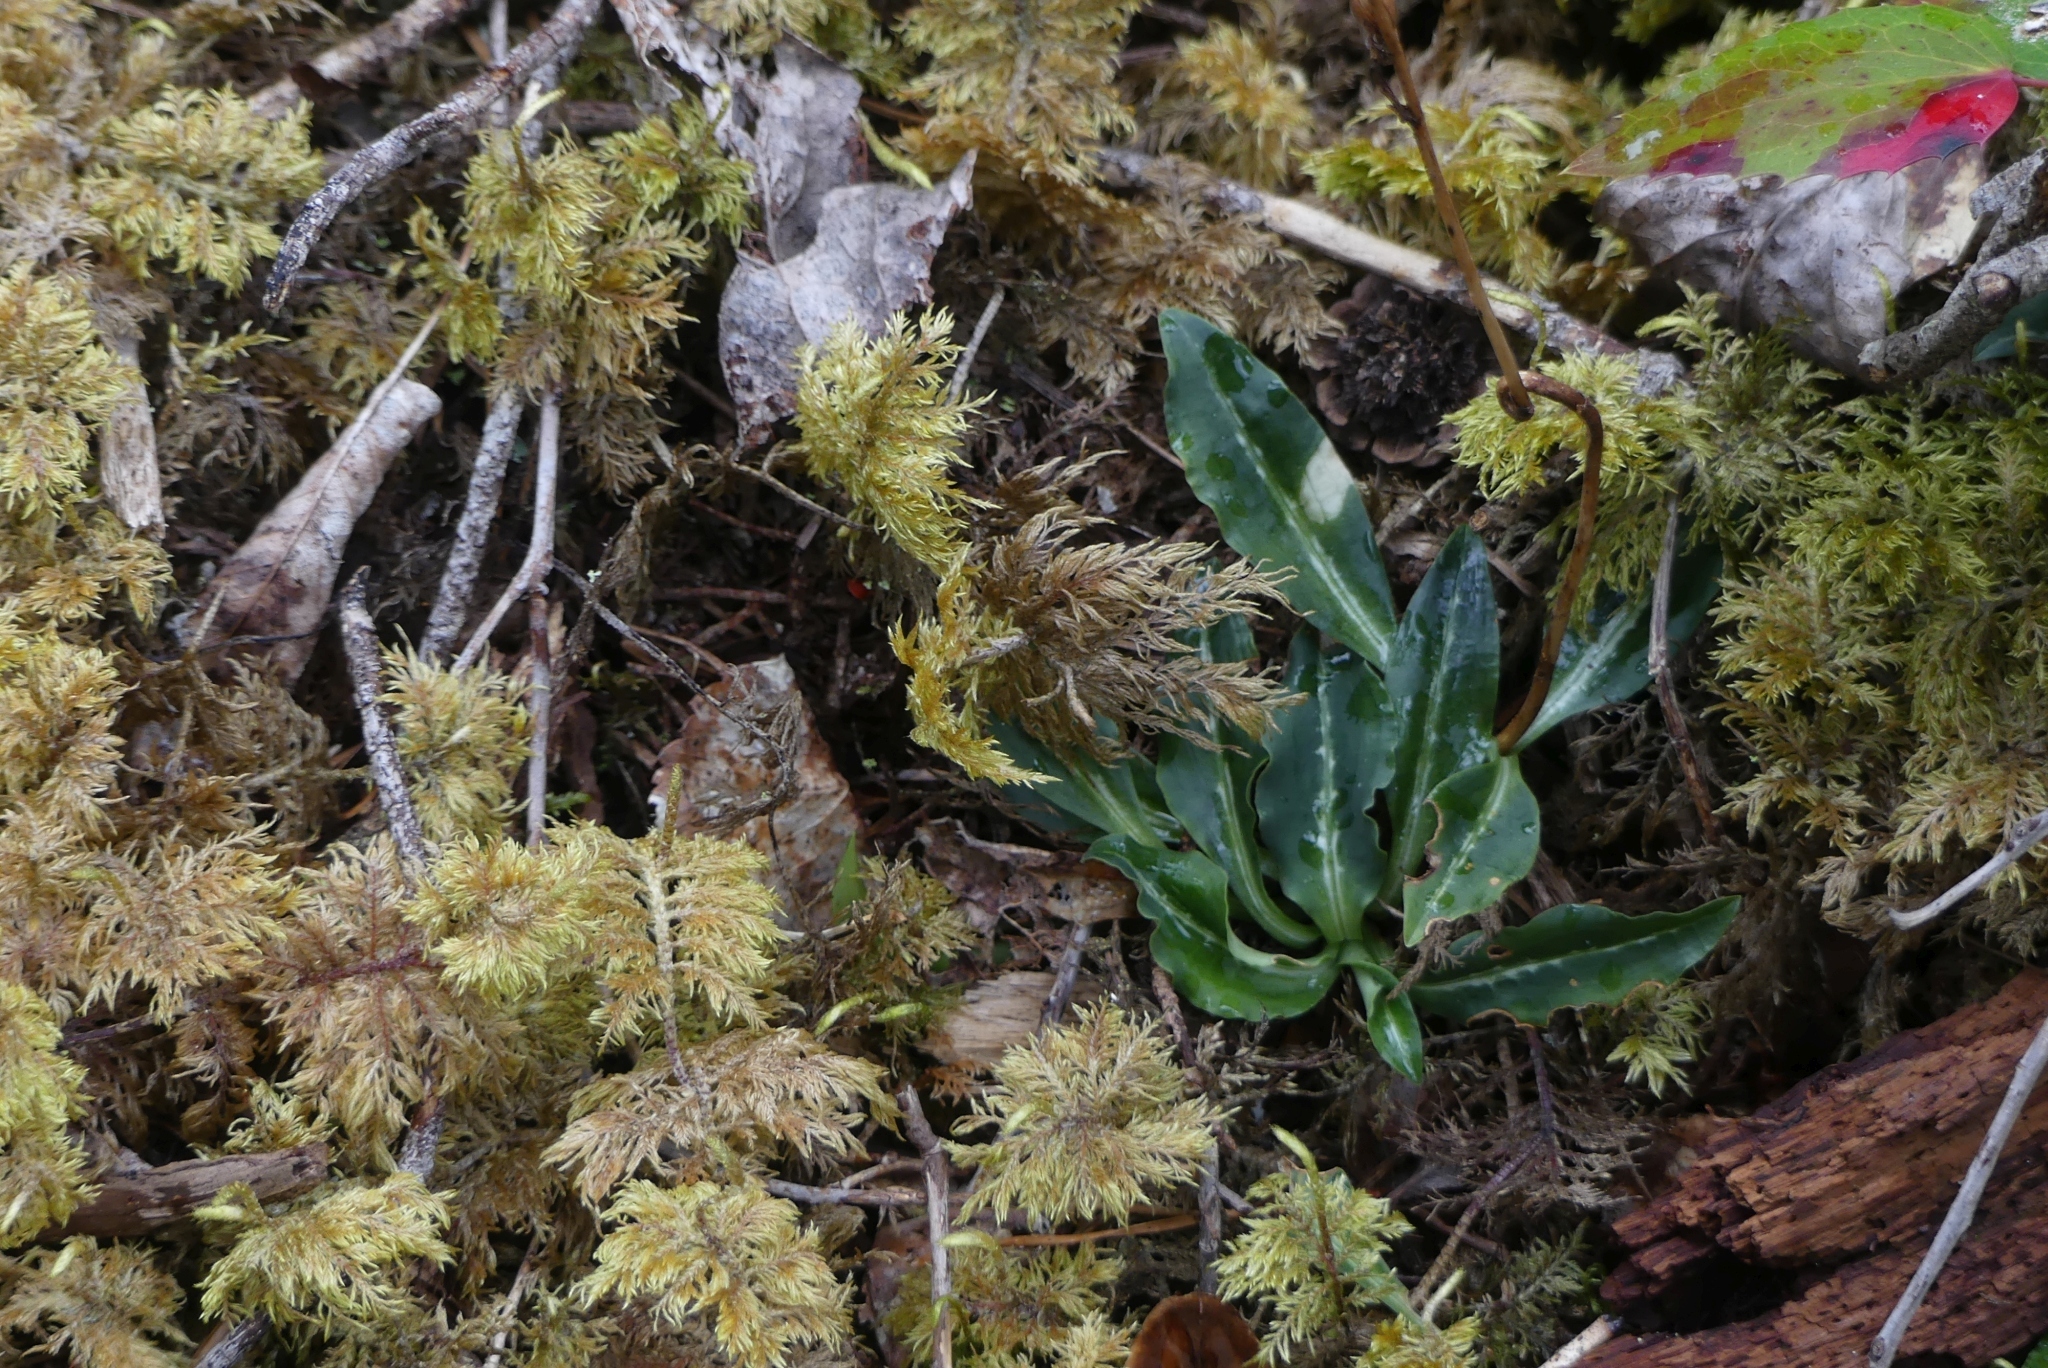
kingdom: Plantae
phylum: Tracheophyta
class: Liliopsida
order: Asparagales
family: Orchidaceae
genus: Goodyera
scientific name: Goodyera oblongifolia
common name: Giant rattlesnake-plantain
